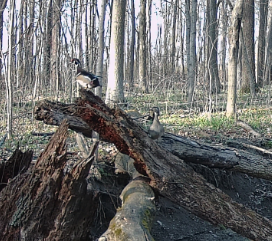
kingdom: Animalia
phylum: Chordata
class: Aves
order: Anseriformes
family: Anatidae
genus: Aix
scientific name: Aix sponsa
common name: Wood duck
